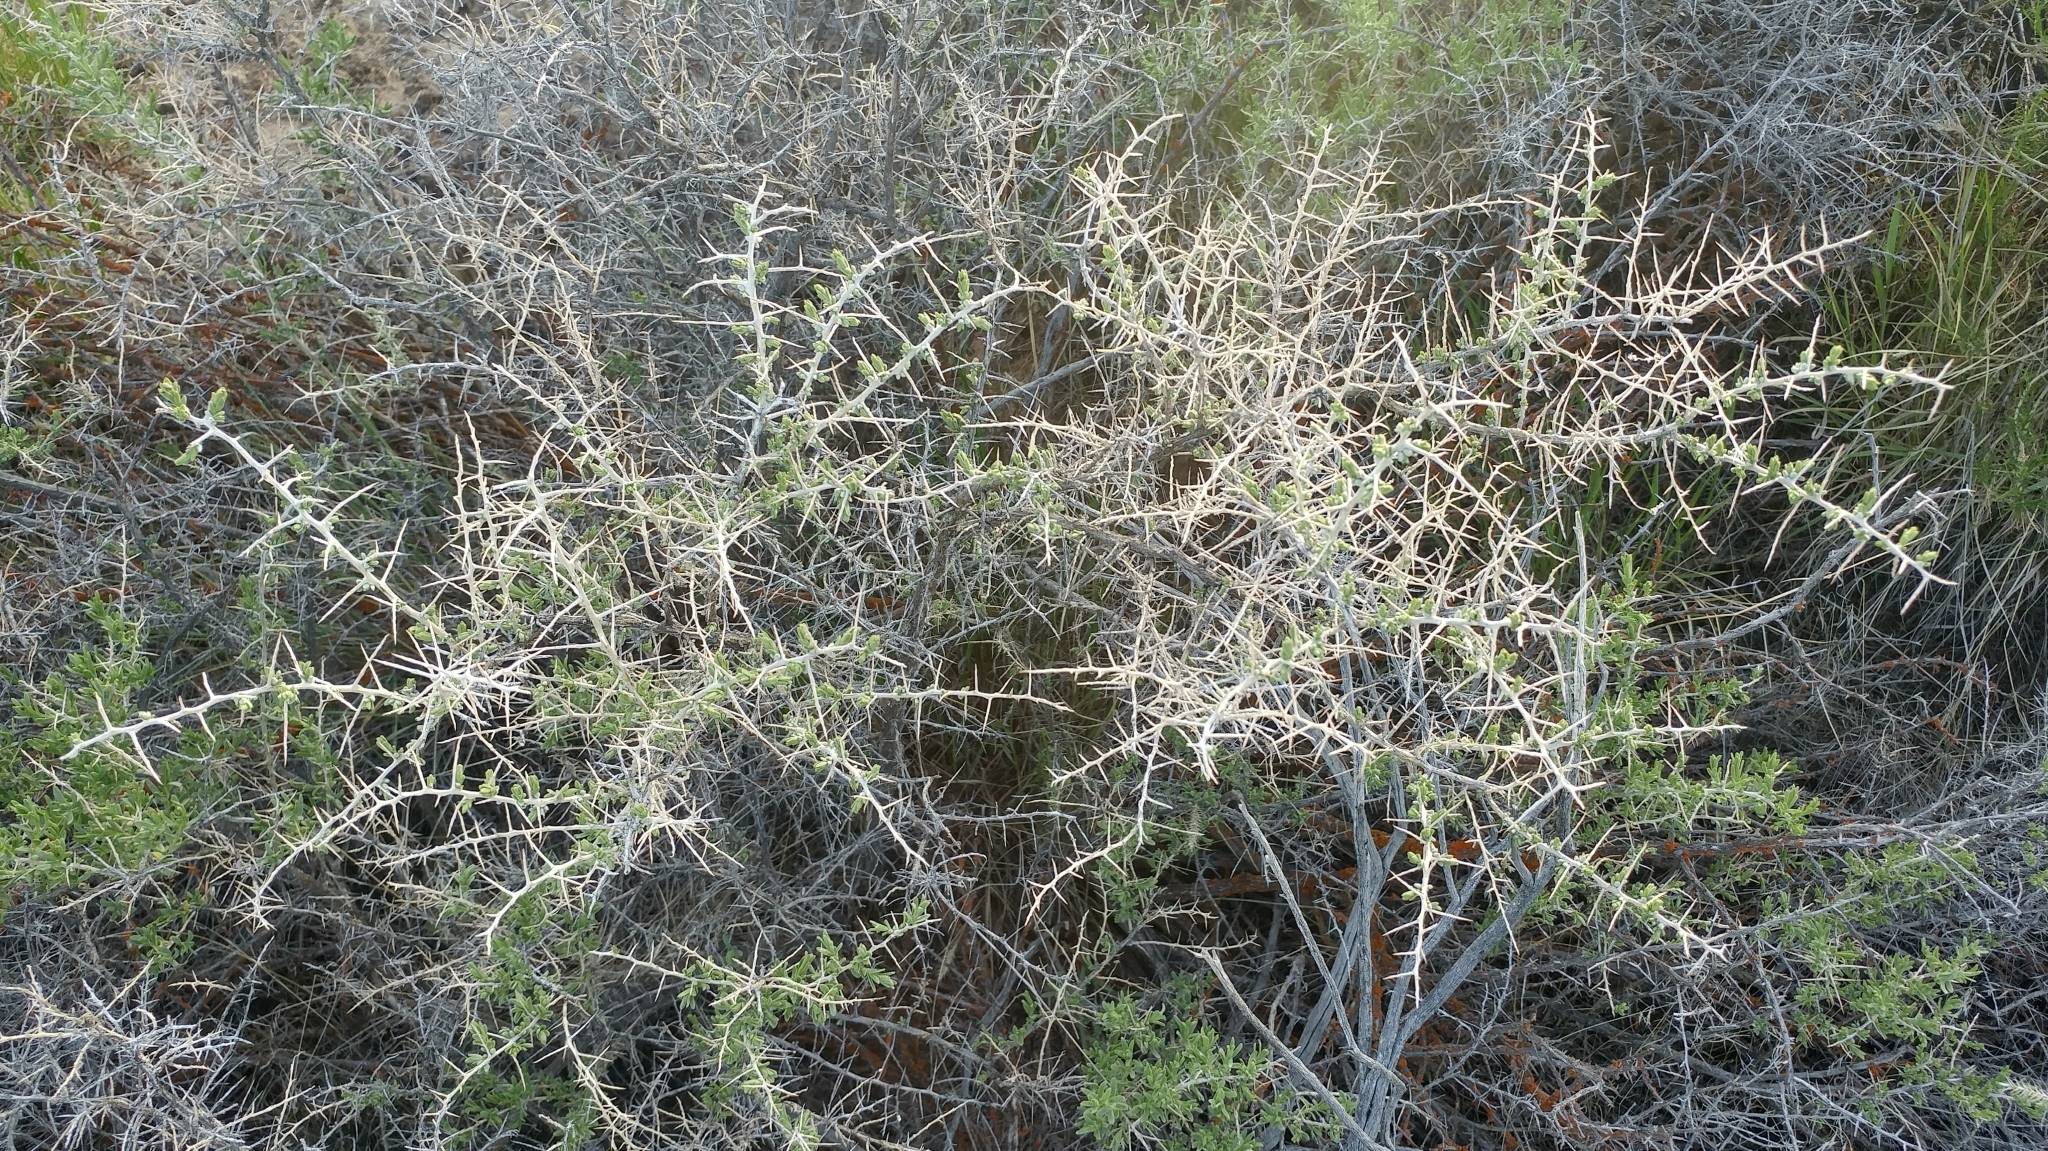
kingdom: Plantae
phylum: Tracheophyta
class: Magnoliopsida
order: Caryophyllales
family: Sarcobataceae
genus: Sarcobatus
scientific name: Sarcobatus vermiculatus
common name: Greasewood
